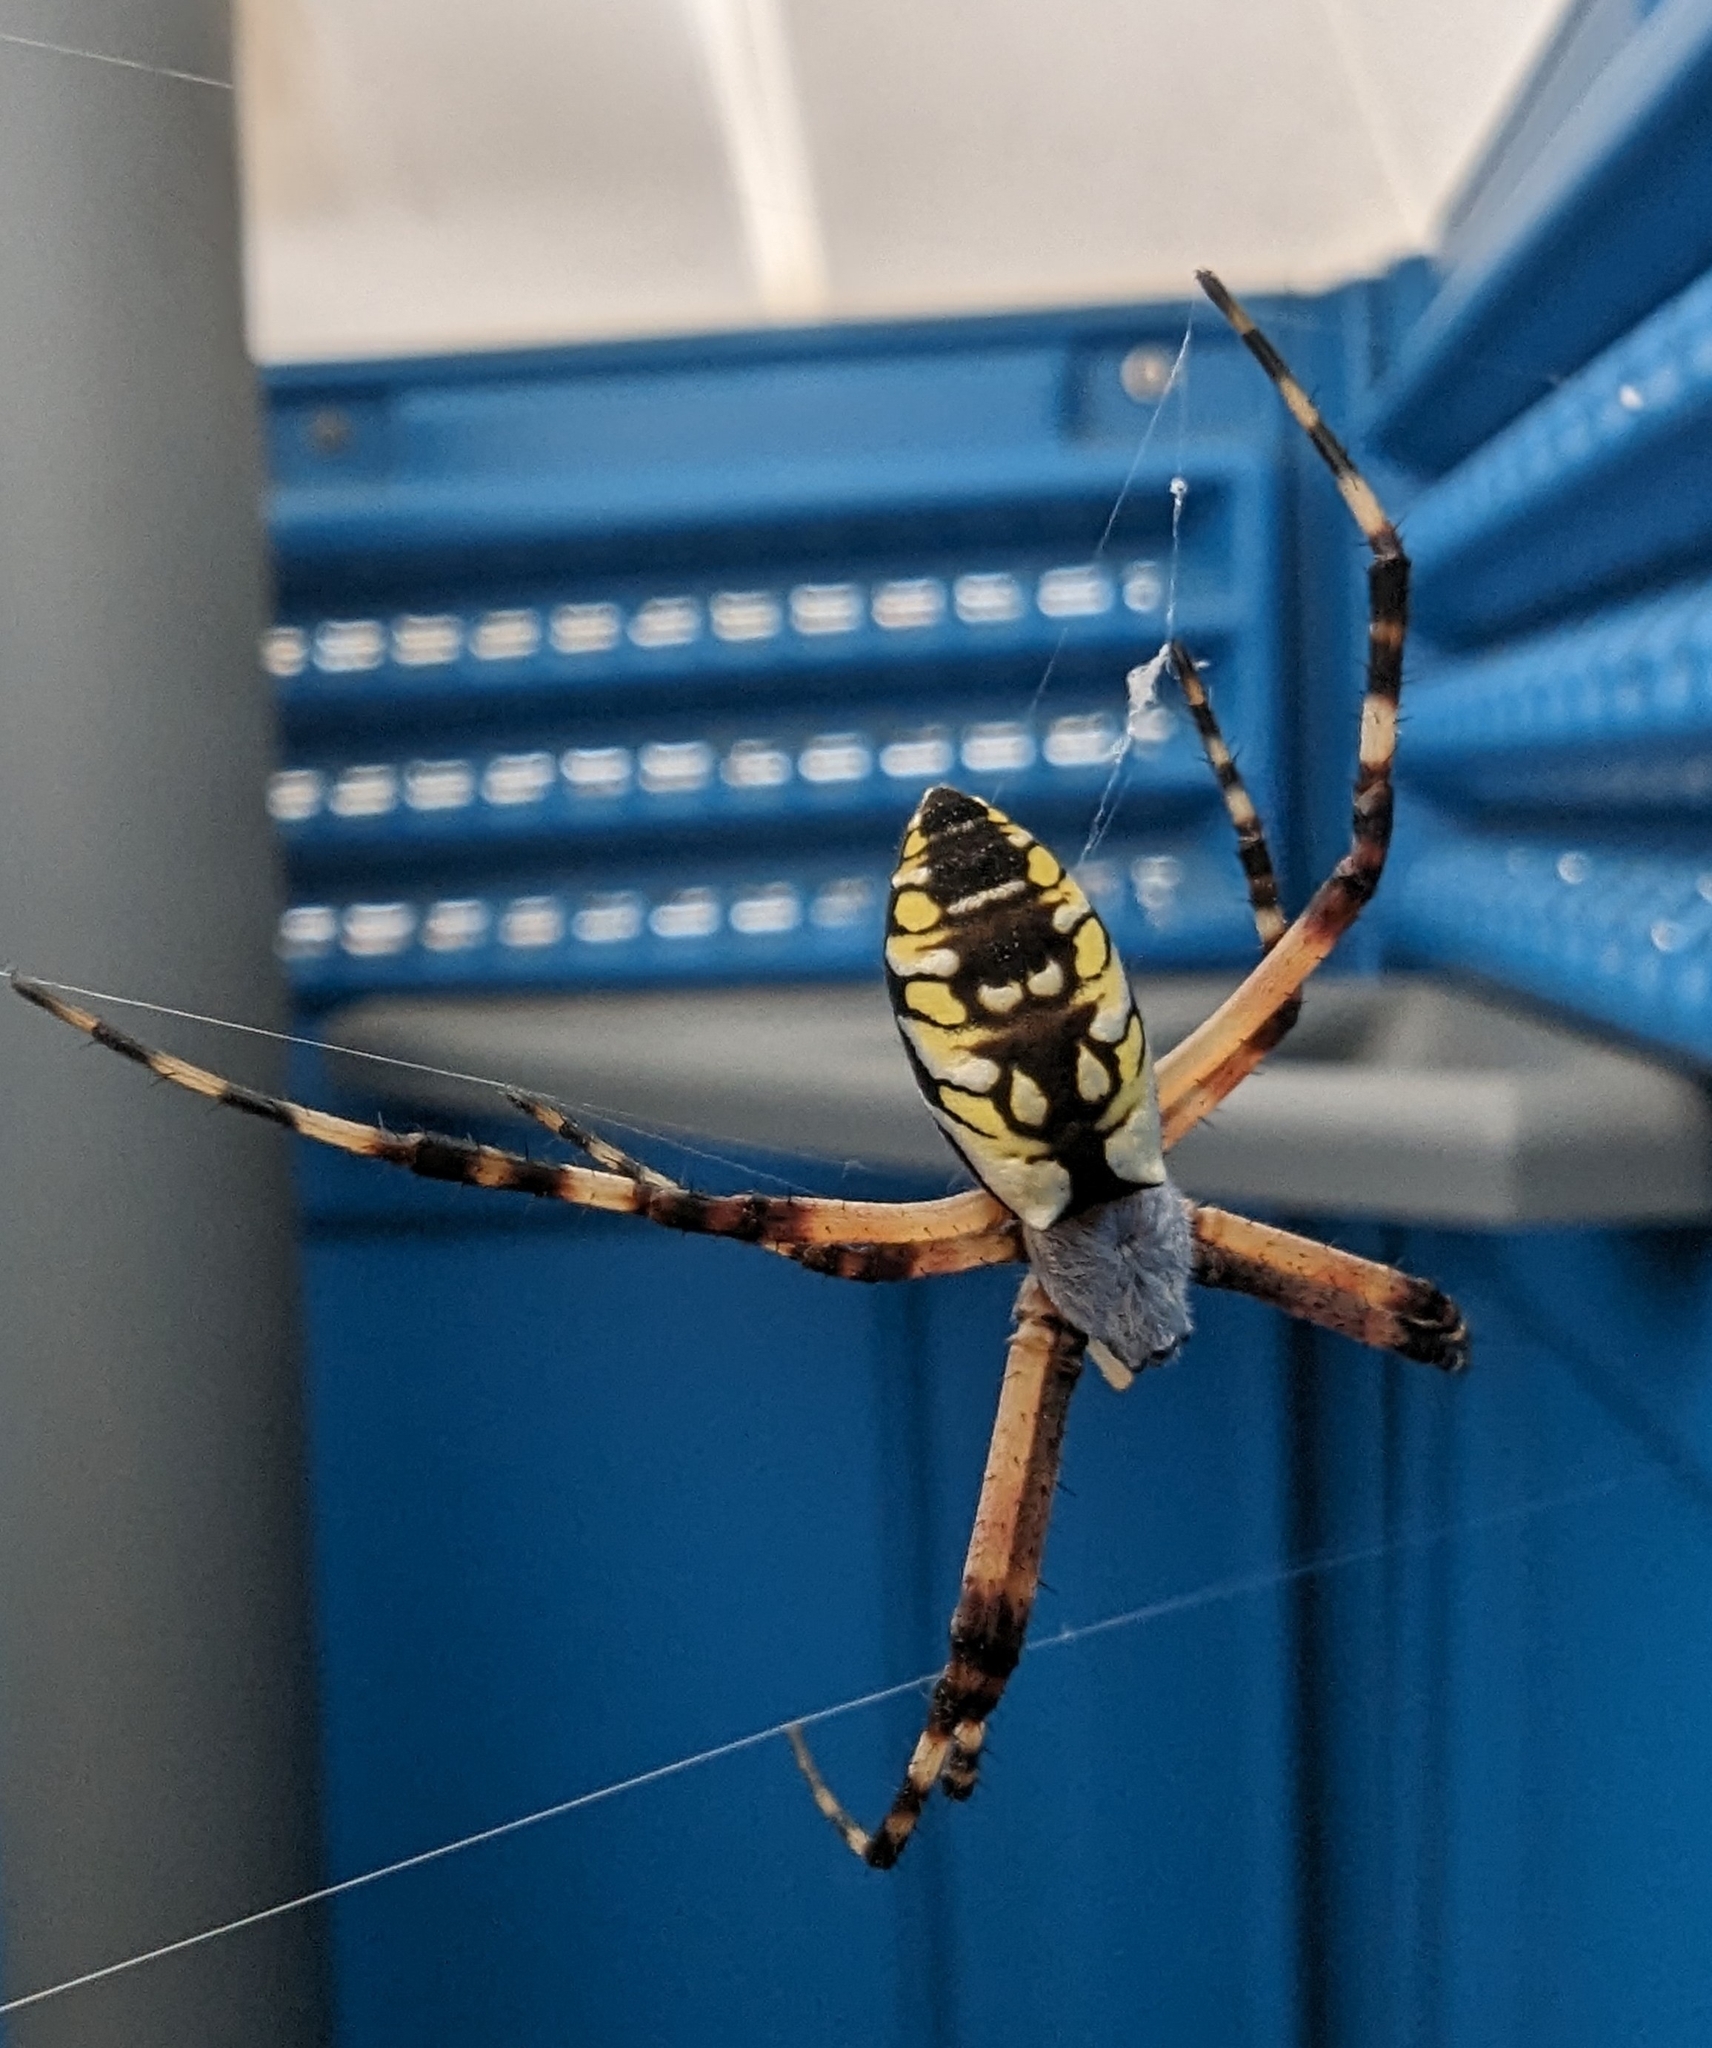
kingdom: Animalia
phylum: Arthropoda
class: Arachnida
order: Araneae
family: Araneidae
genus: Argiope
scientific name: Argiope aurantia
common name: Orb weavers
